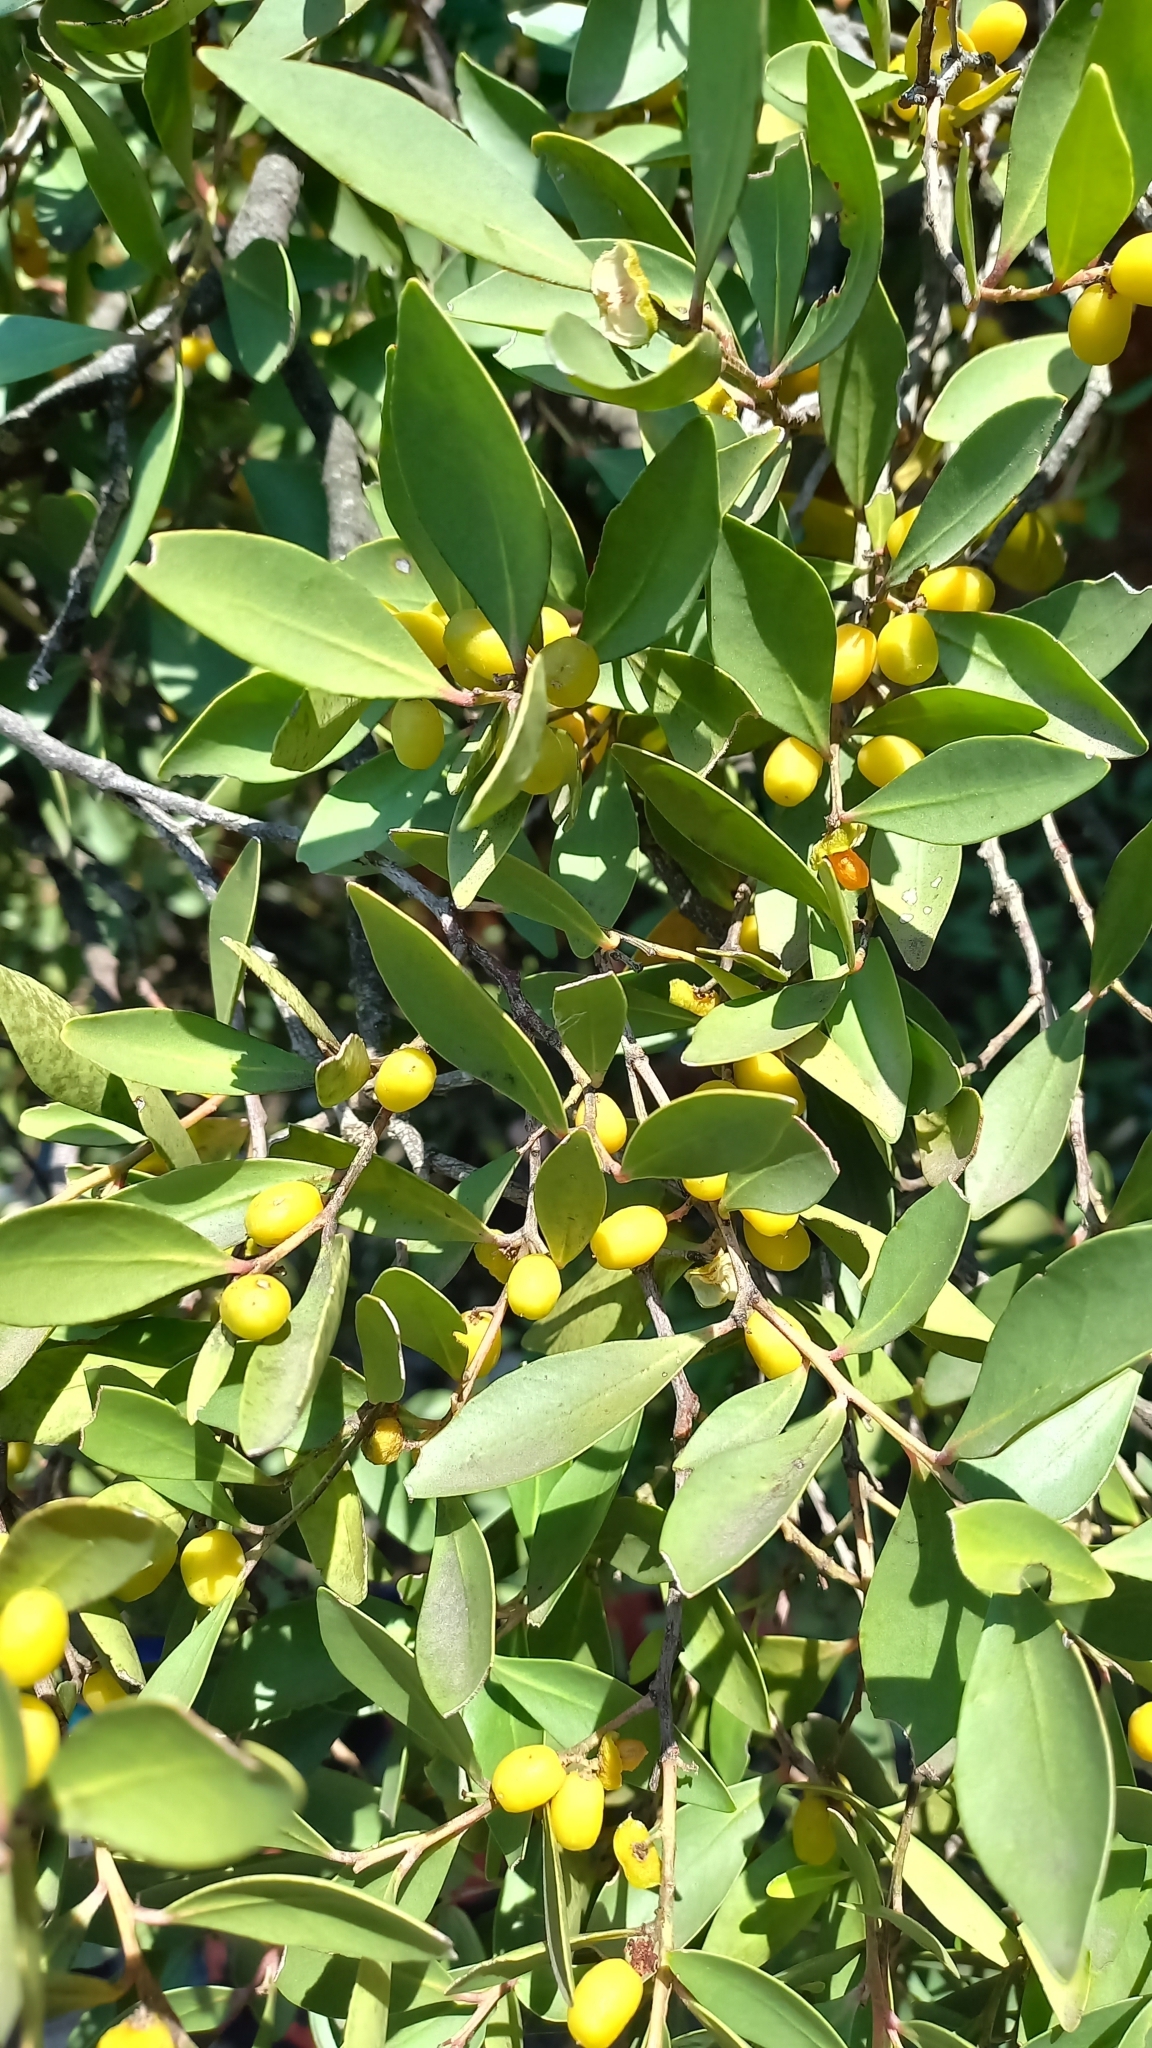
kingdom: Plantae
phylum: Tracheophyta
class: Magnoliopsida
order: Celastrales
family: Celastraceae
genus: Gymnosporia
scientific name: Gymnosporia laurina
